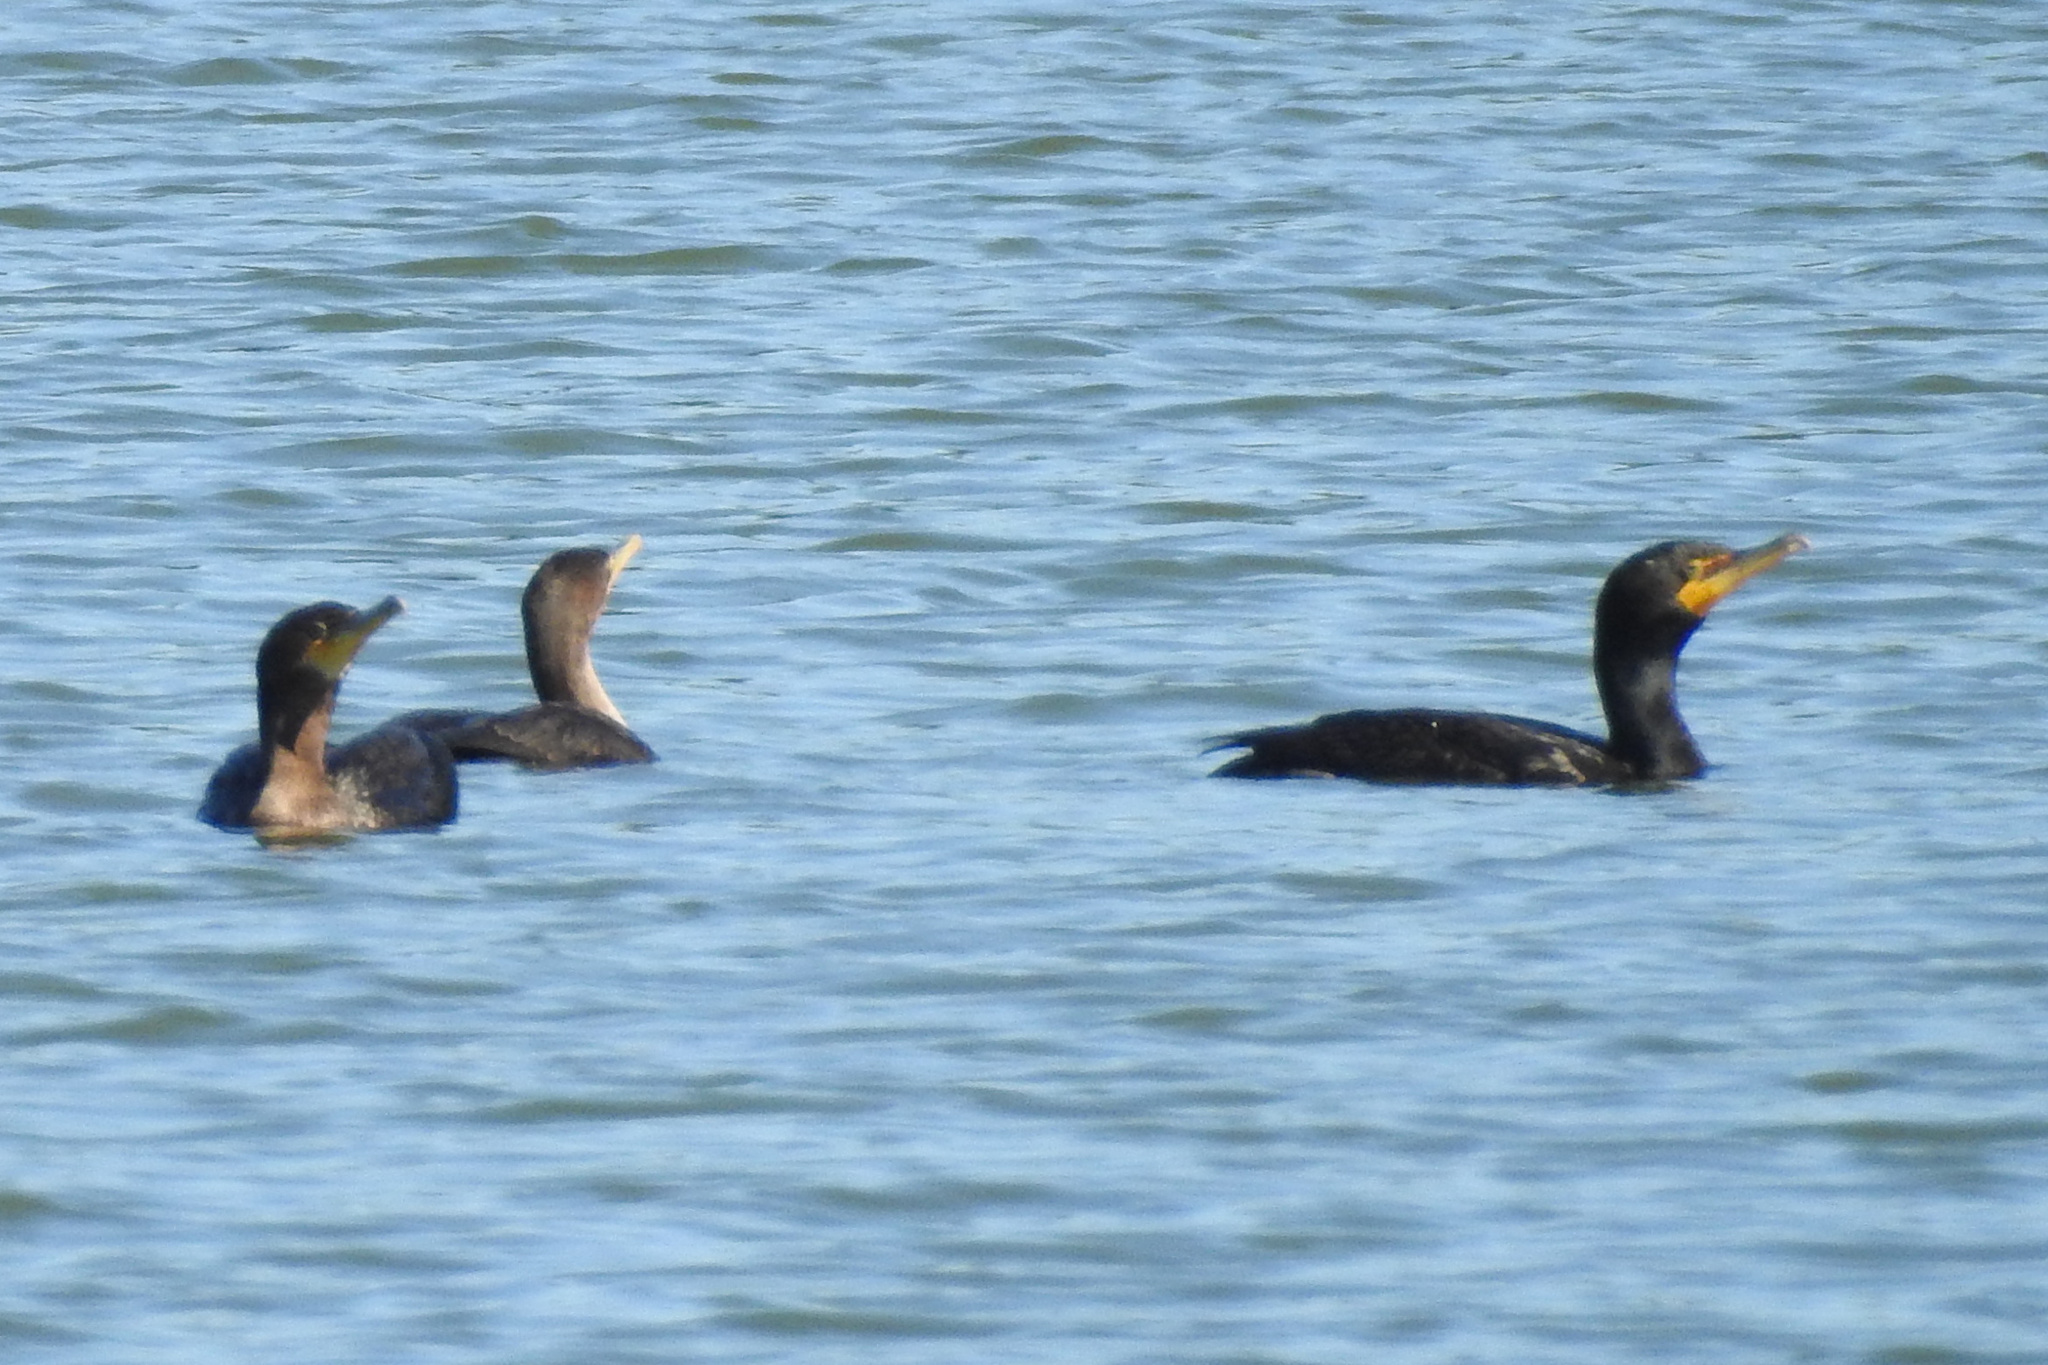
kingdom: Animalia
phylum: Chordata
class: Aves
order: Suliformes
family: Phalacrocoracidae
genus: Phalacrocorax
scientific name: Phalacrocorax auritus
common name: Double-crested cormorant
